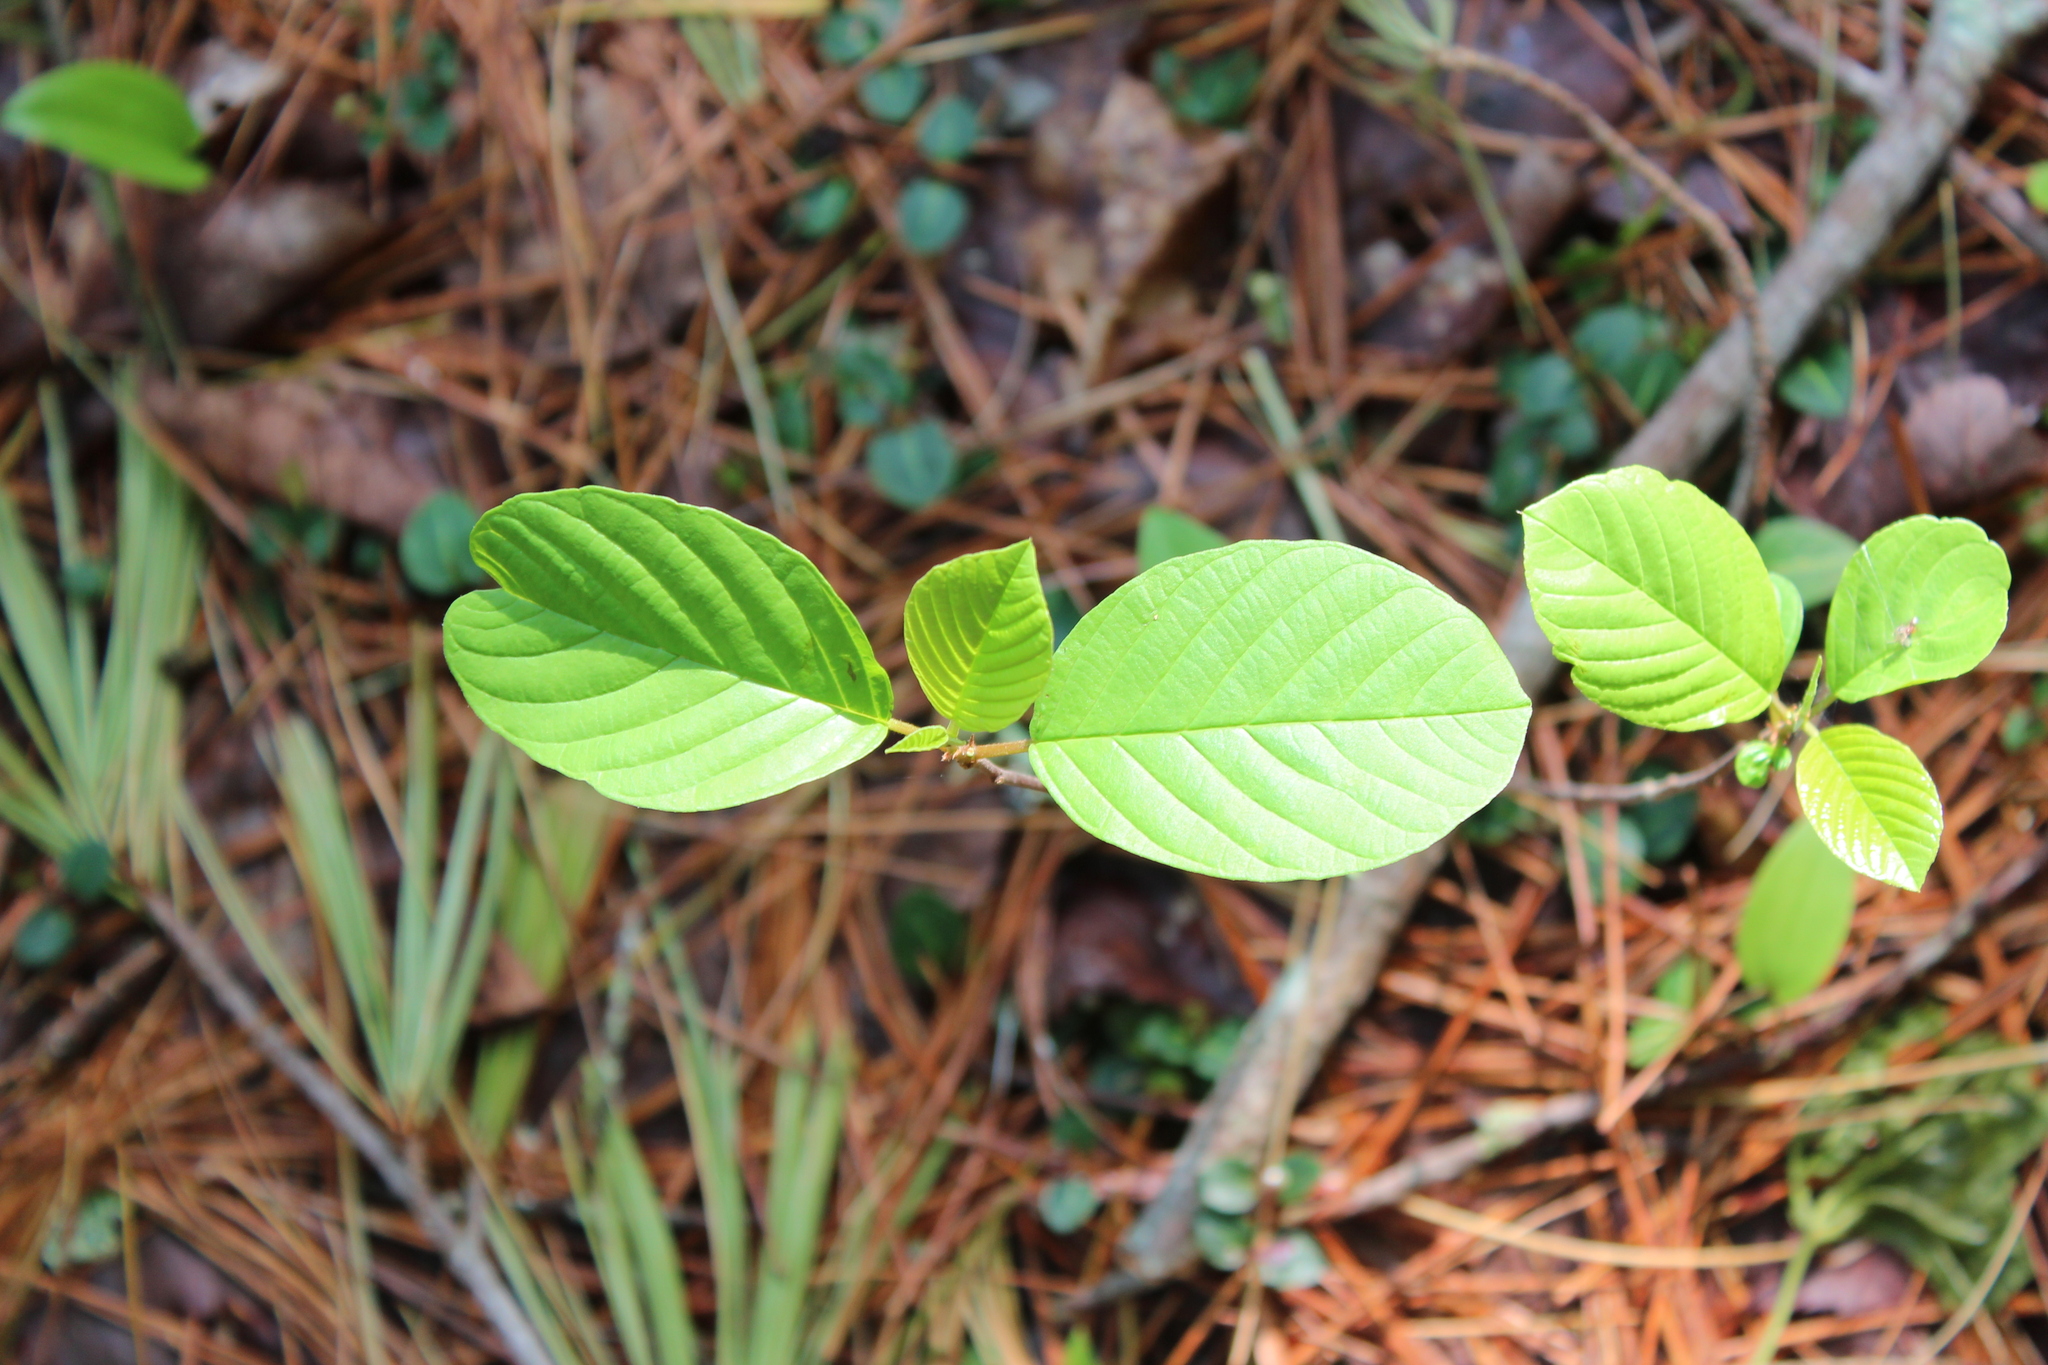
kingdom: Plantae
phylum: Tracheophyta
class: Magnoliopsida
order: Rosales
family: Rhamnaceae
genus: Frangula
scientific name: Frangula alnus
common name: Alder buckthorn
